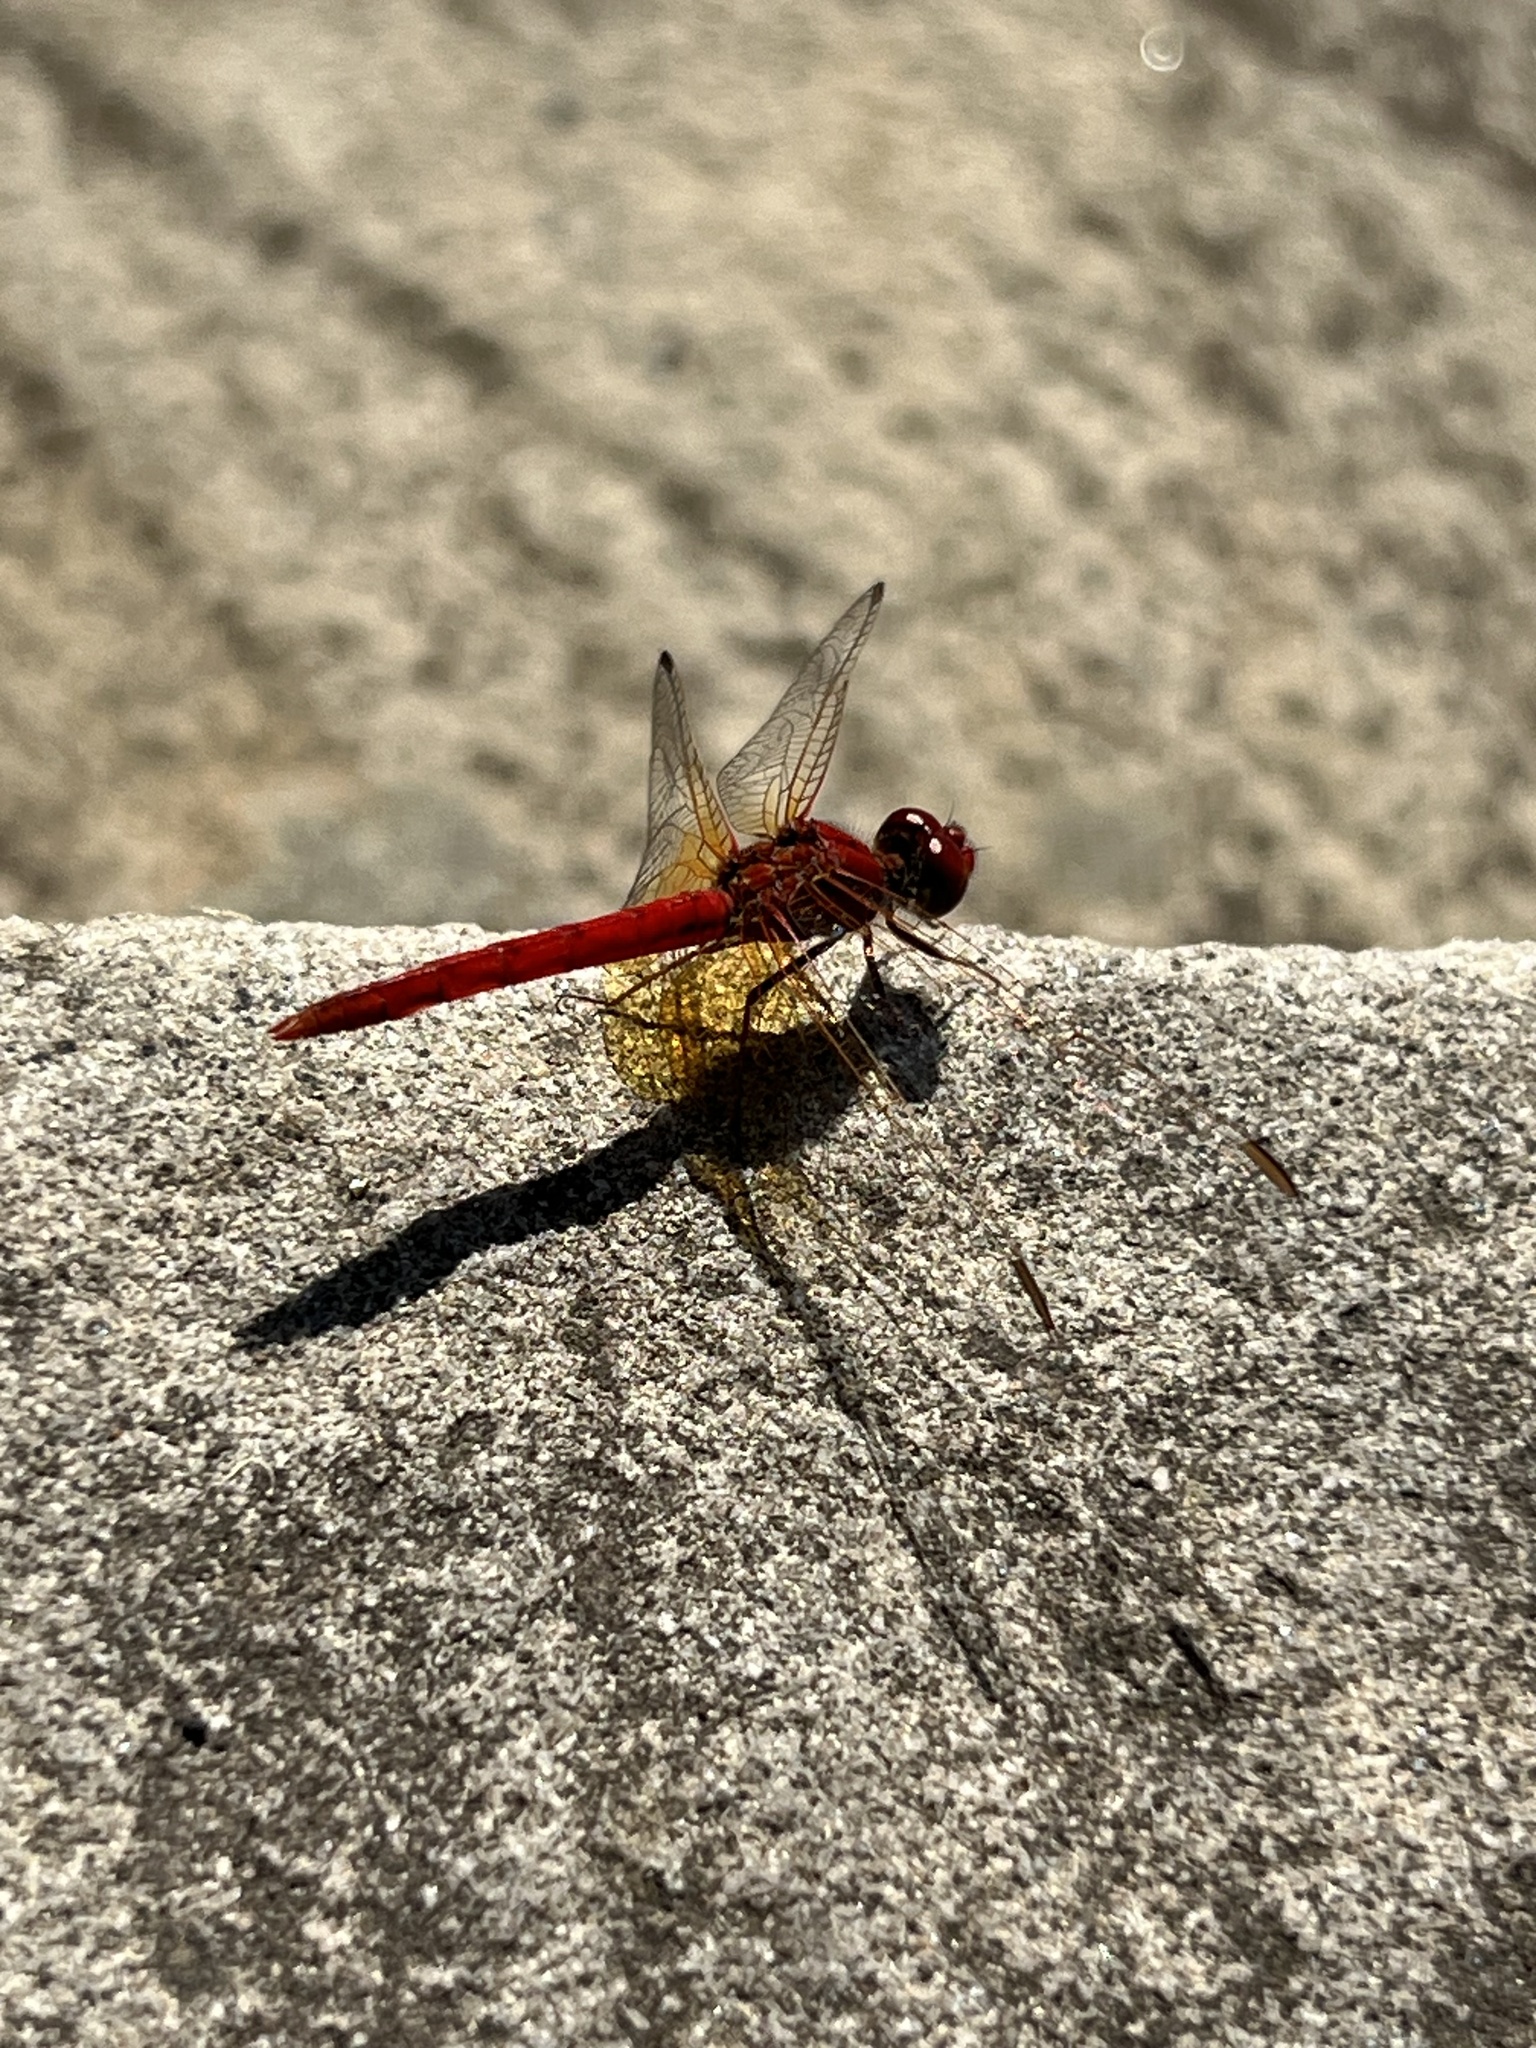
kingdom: Animalia
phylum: Arthropoda
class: Insecta
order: Odonata
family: Libellulidae
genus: Diplacodes
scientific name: Diplacodes haematodes
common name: Scarlet percher
